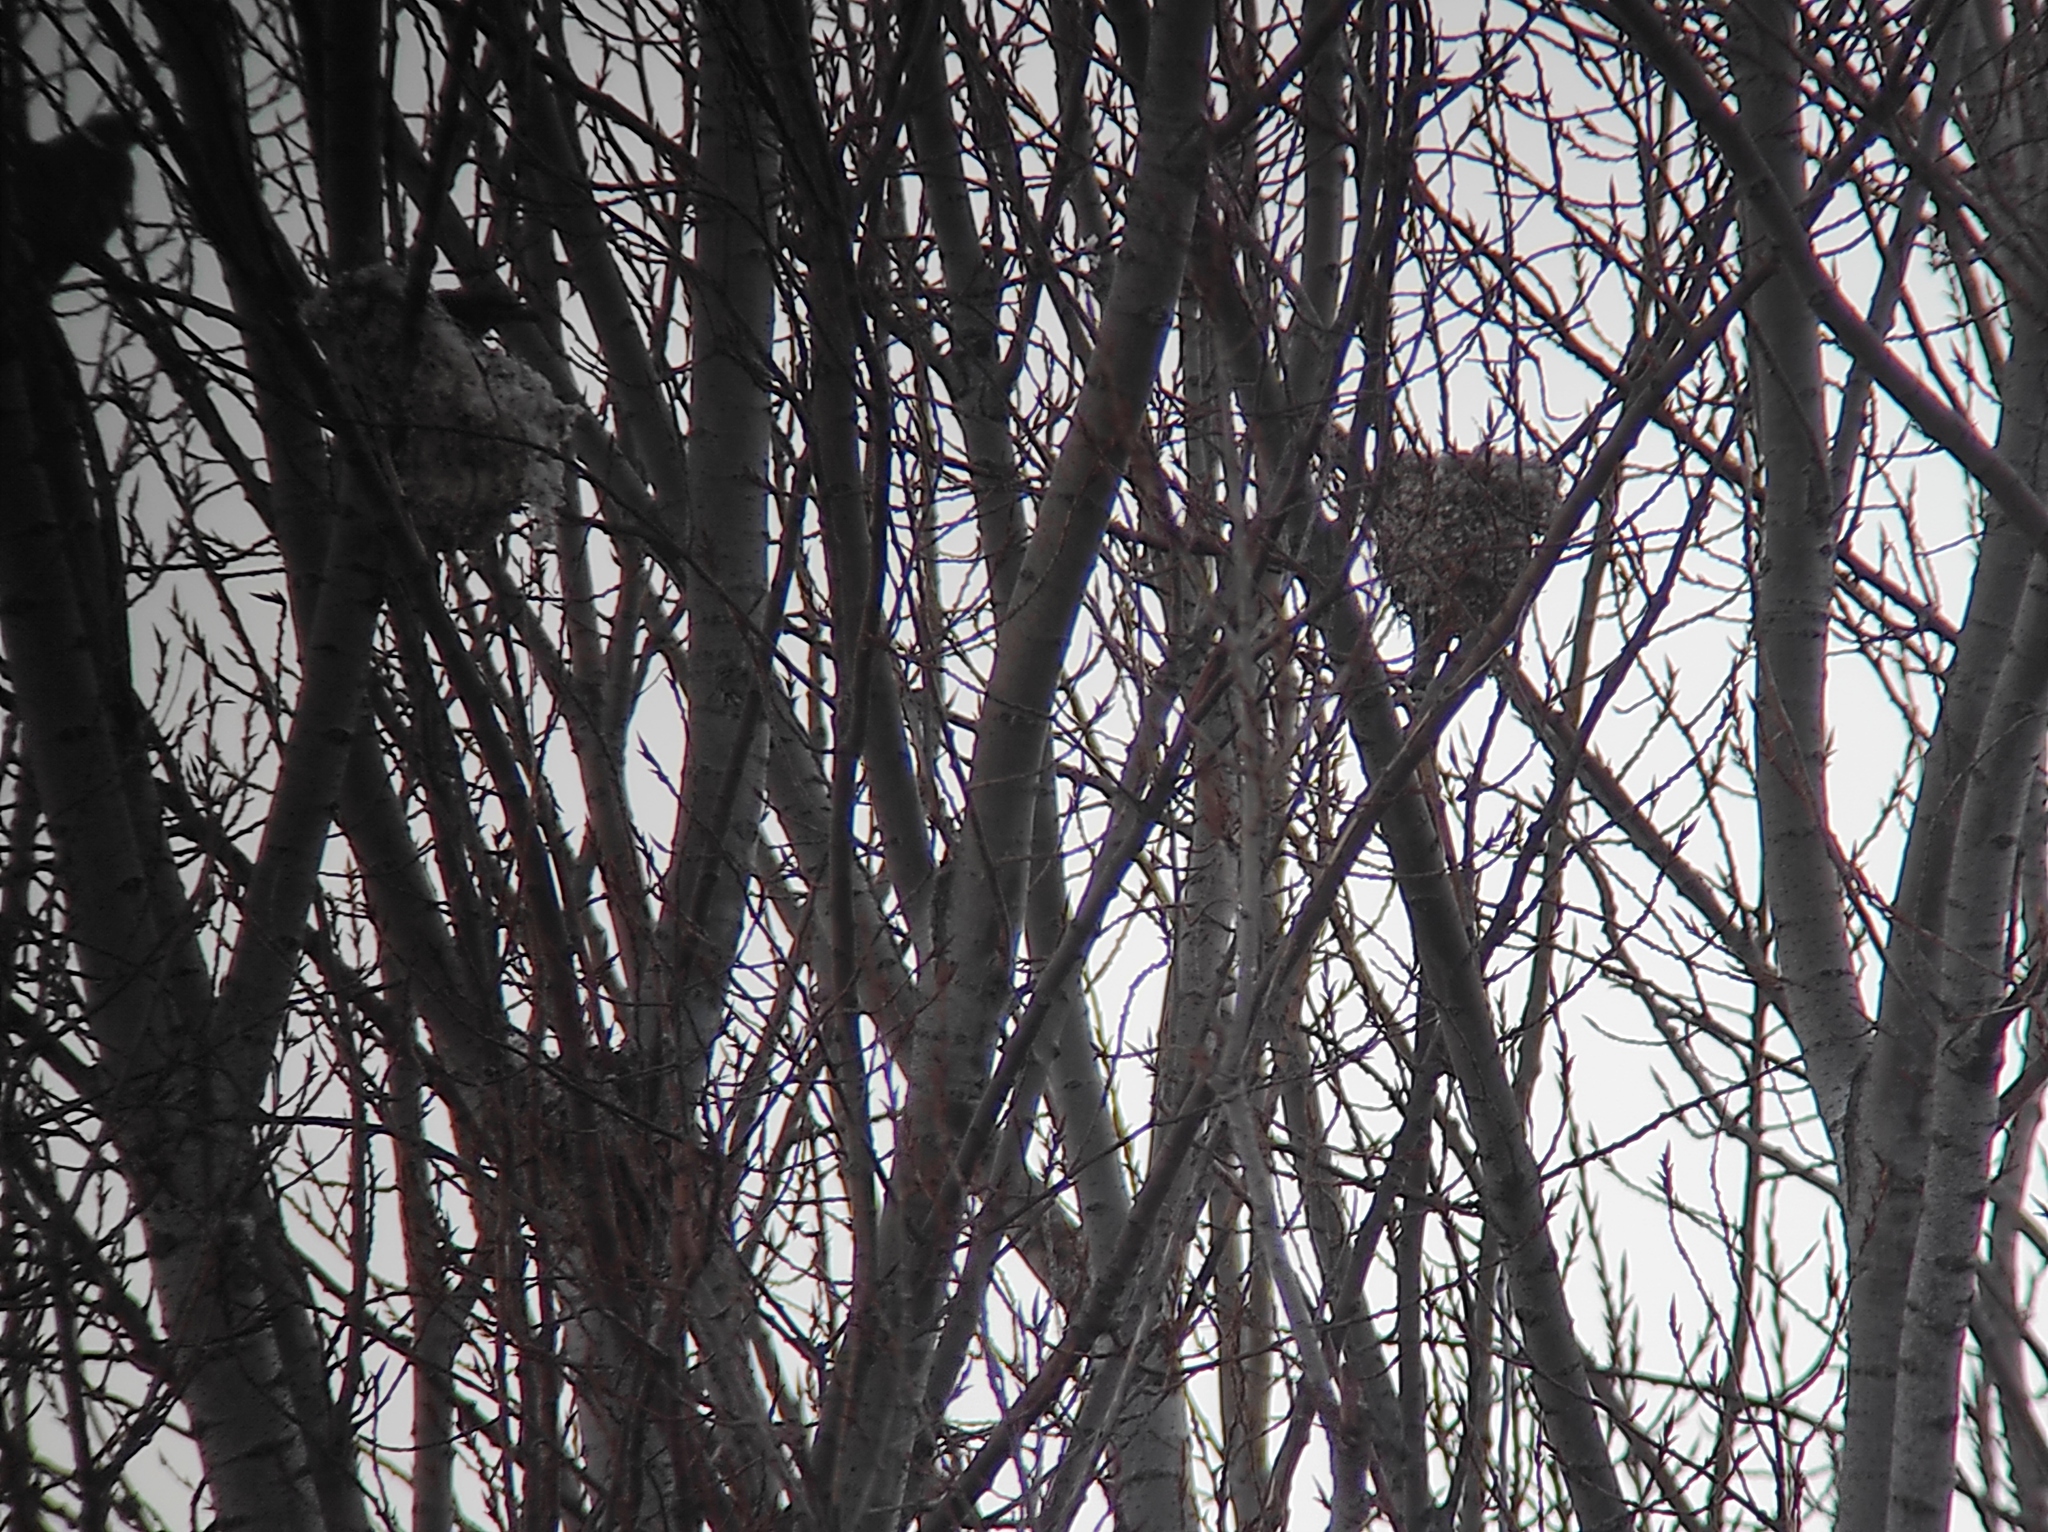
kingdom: Animalia
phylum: Chordata
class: Aves
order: Passeriformes
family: Remizidae
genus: Remiz
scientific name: Remiz pendulinus
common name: Eurasian penduline tit
